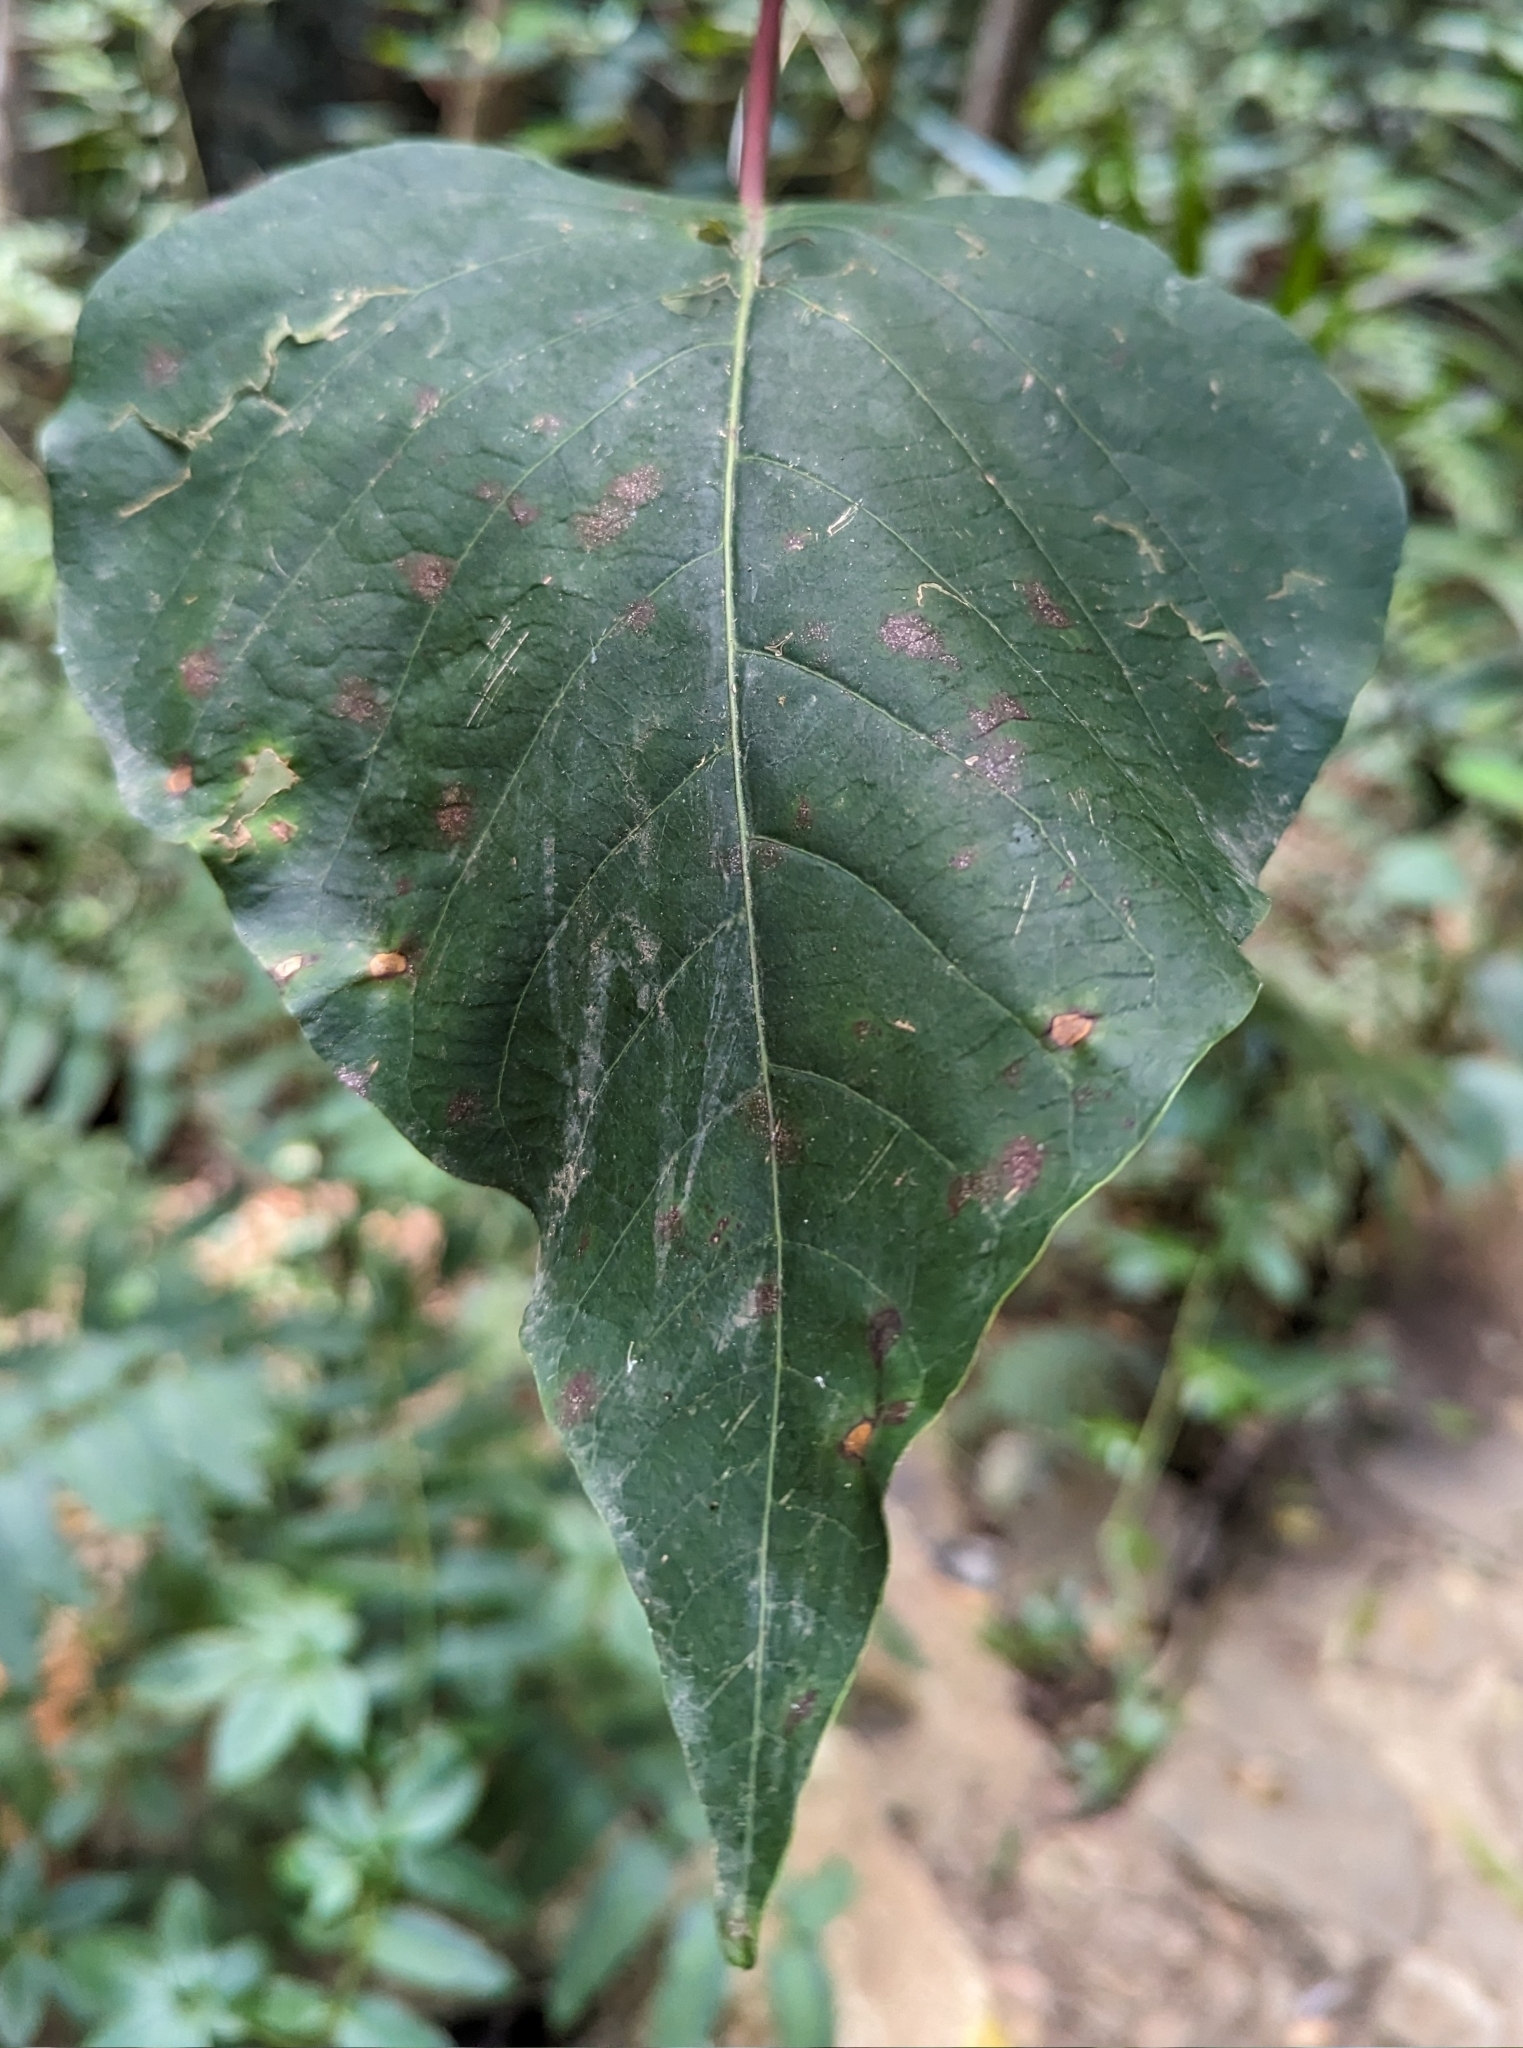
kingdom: Plantae
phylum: Tracheophyta
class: Magnoliopsida
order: Malpighiales
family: Euphorbiaceae
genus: Homalanthus
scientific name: Homalanthus populifolius
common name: Queensland poplar
